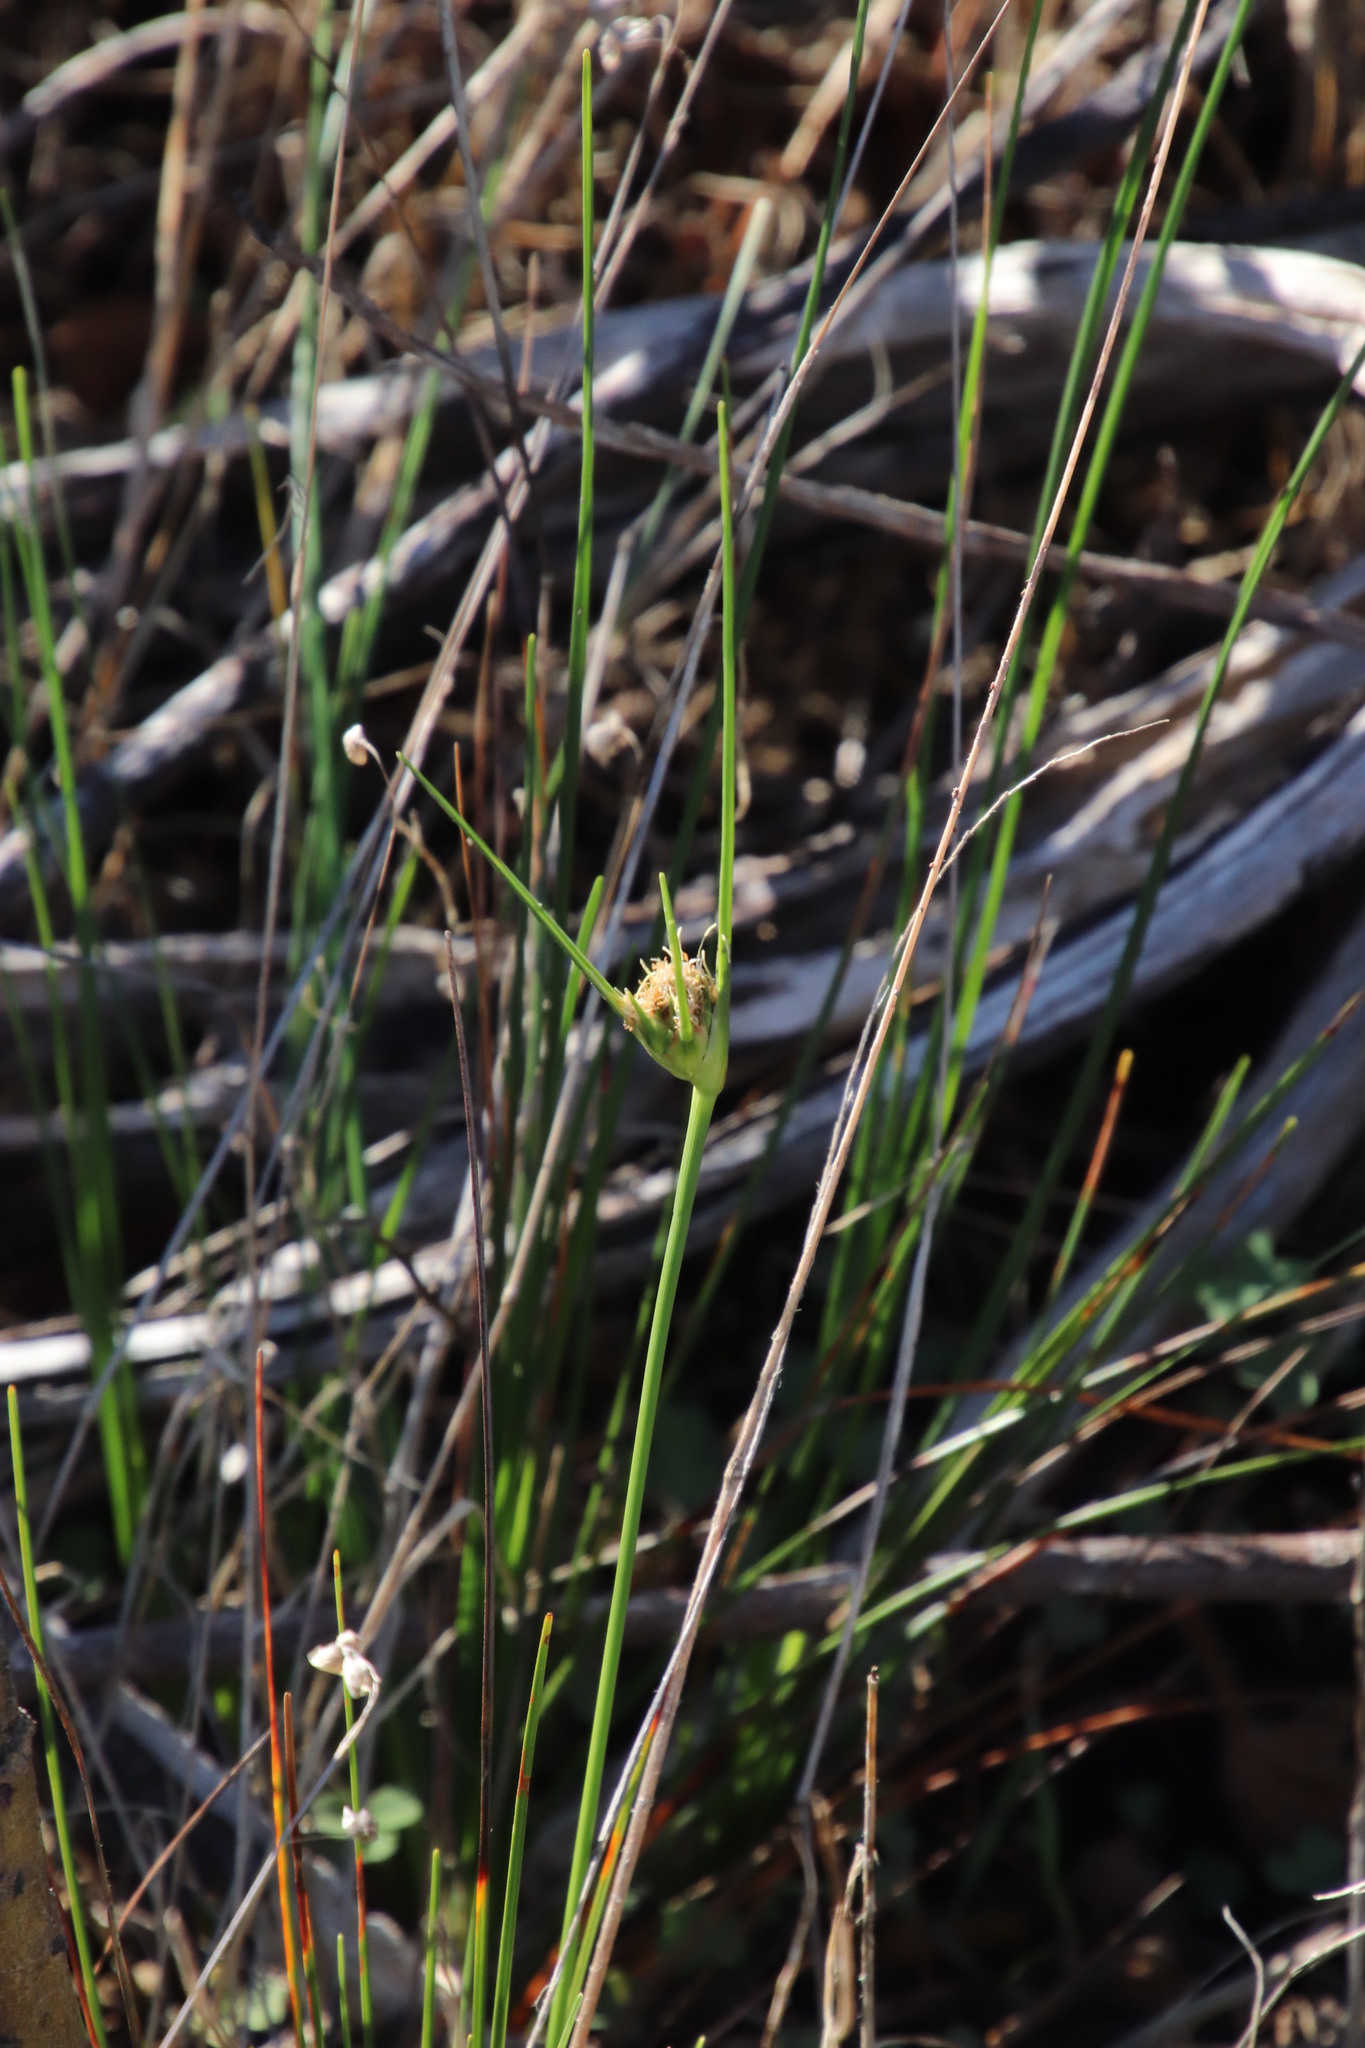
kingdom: Plantae
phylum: Tracheophyta
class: Liliopsida
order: Poales
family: Cyperaceae
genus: Ficinia
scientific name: Ficinia pallens
